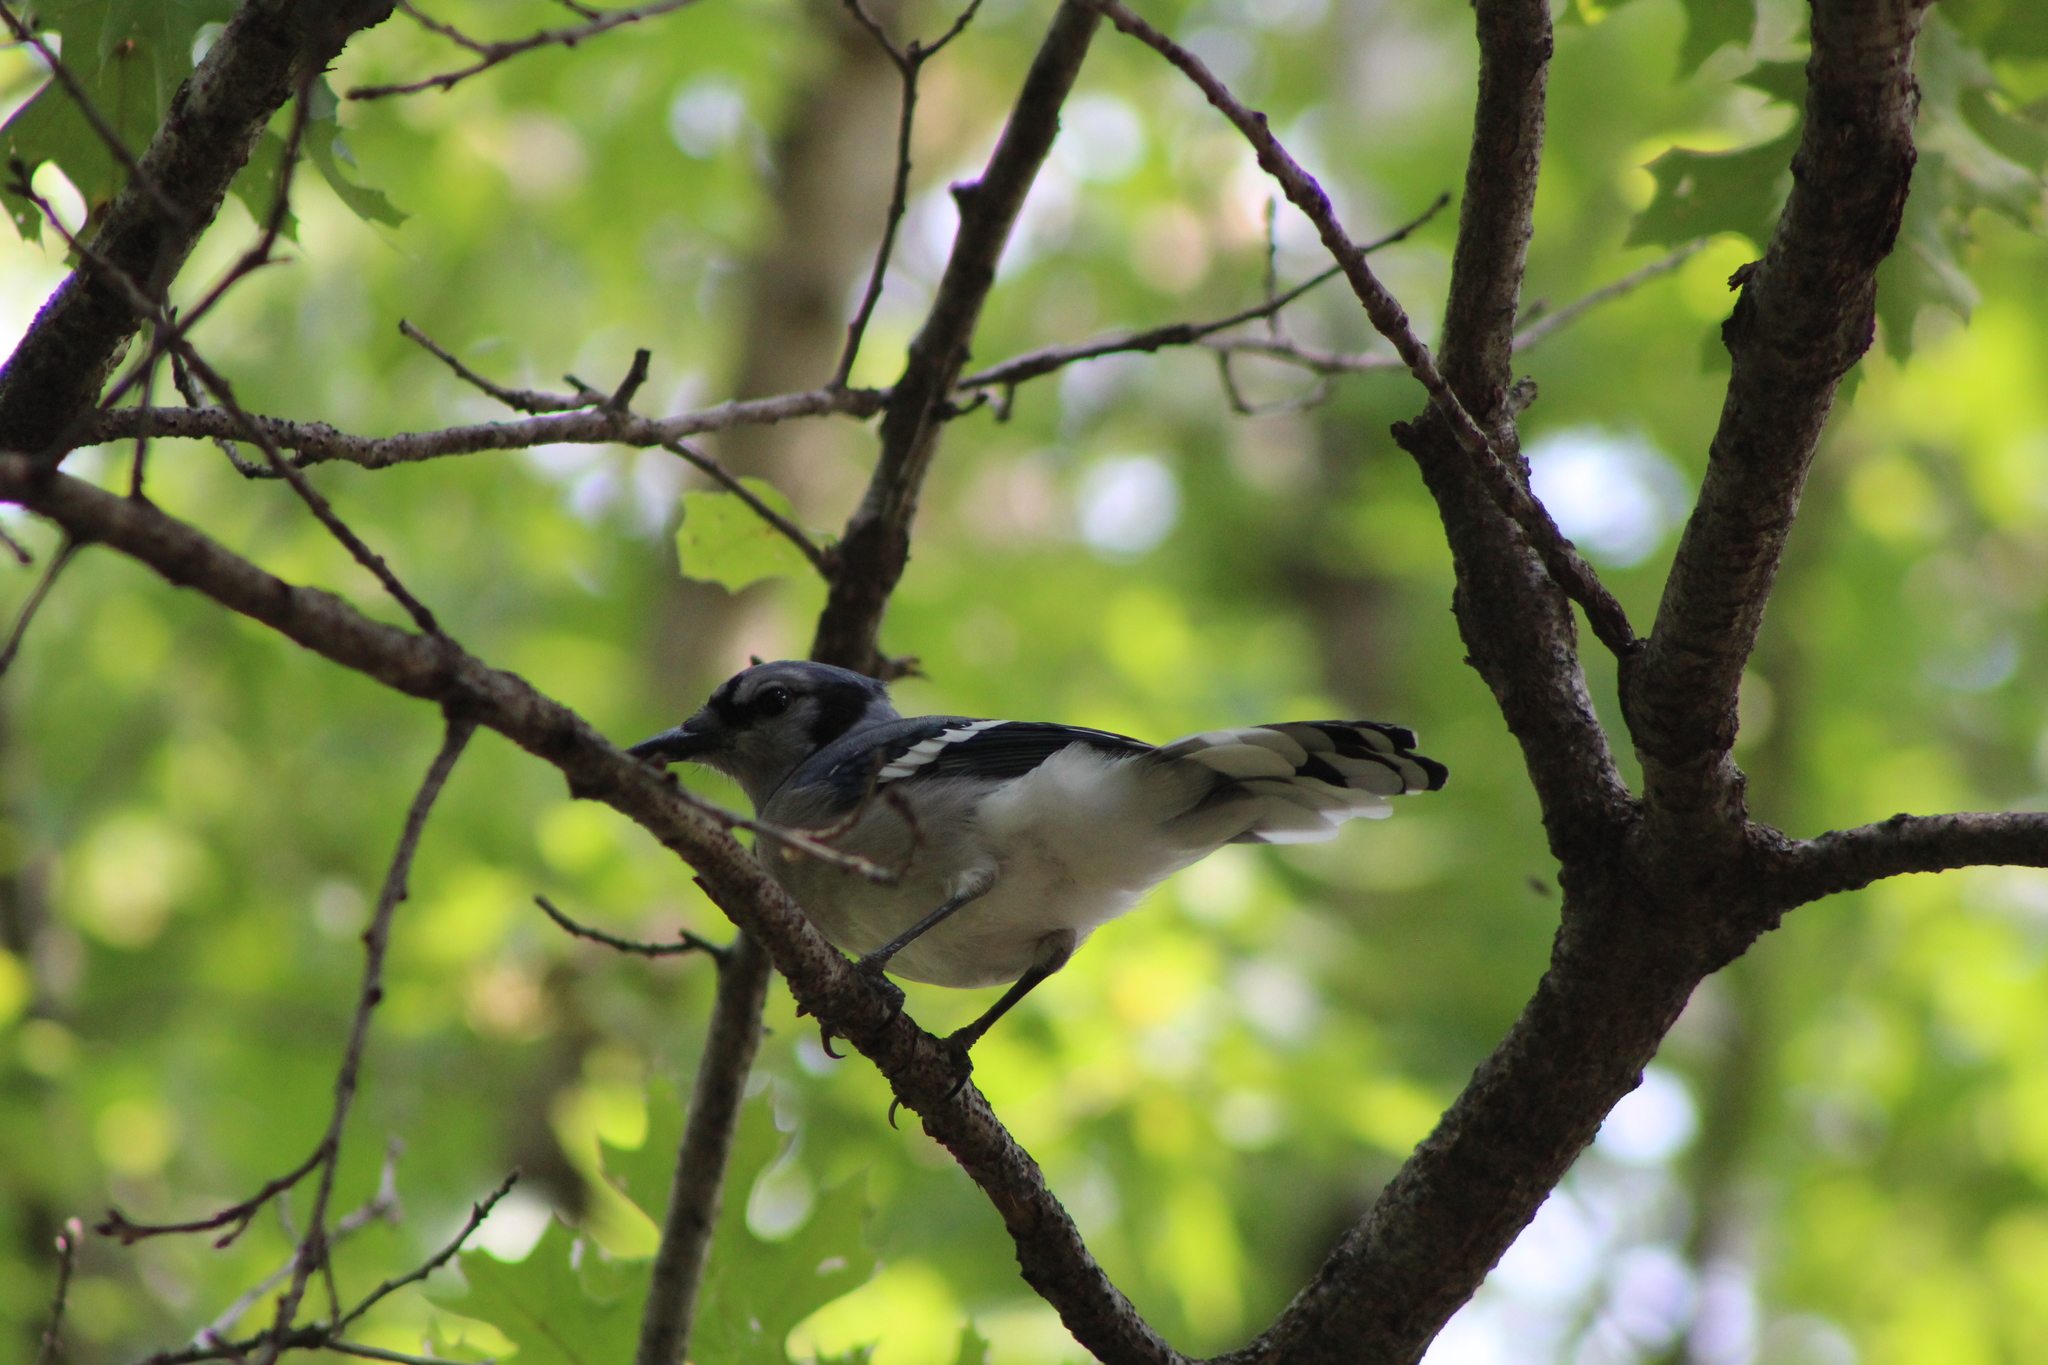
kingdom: Animalia
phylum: Chordata
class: Aves
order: Passeriformes
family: Corvidae
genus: Cyanocitta
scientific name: Cyanocitta cristata
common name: Blue jay
